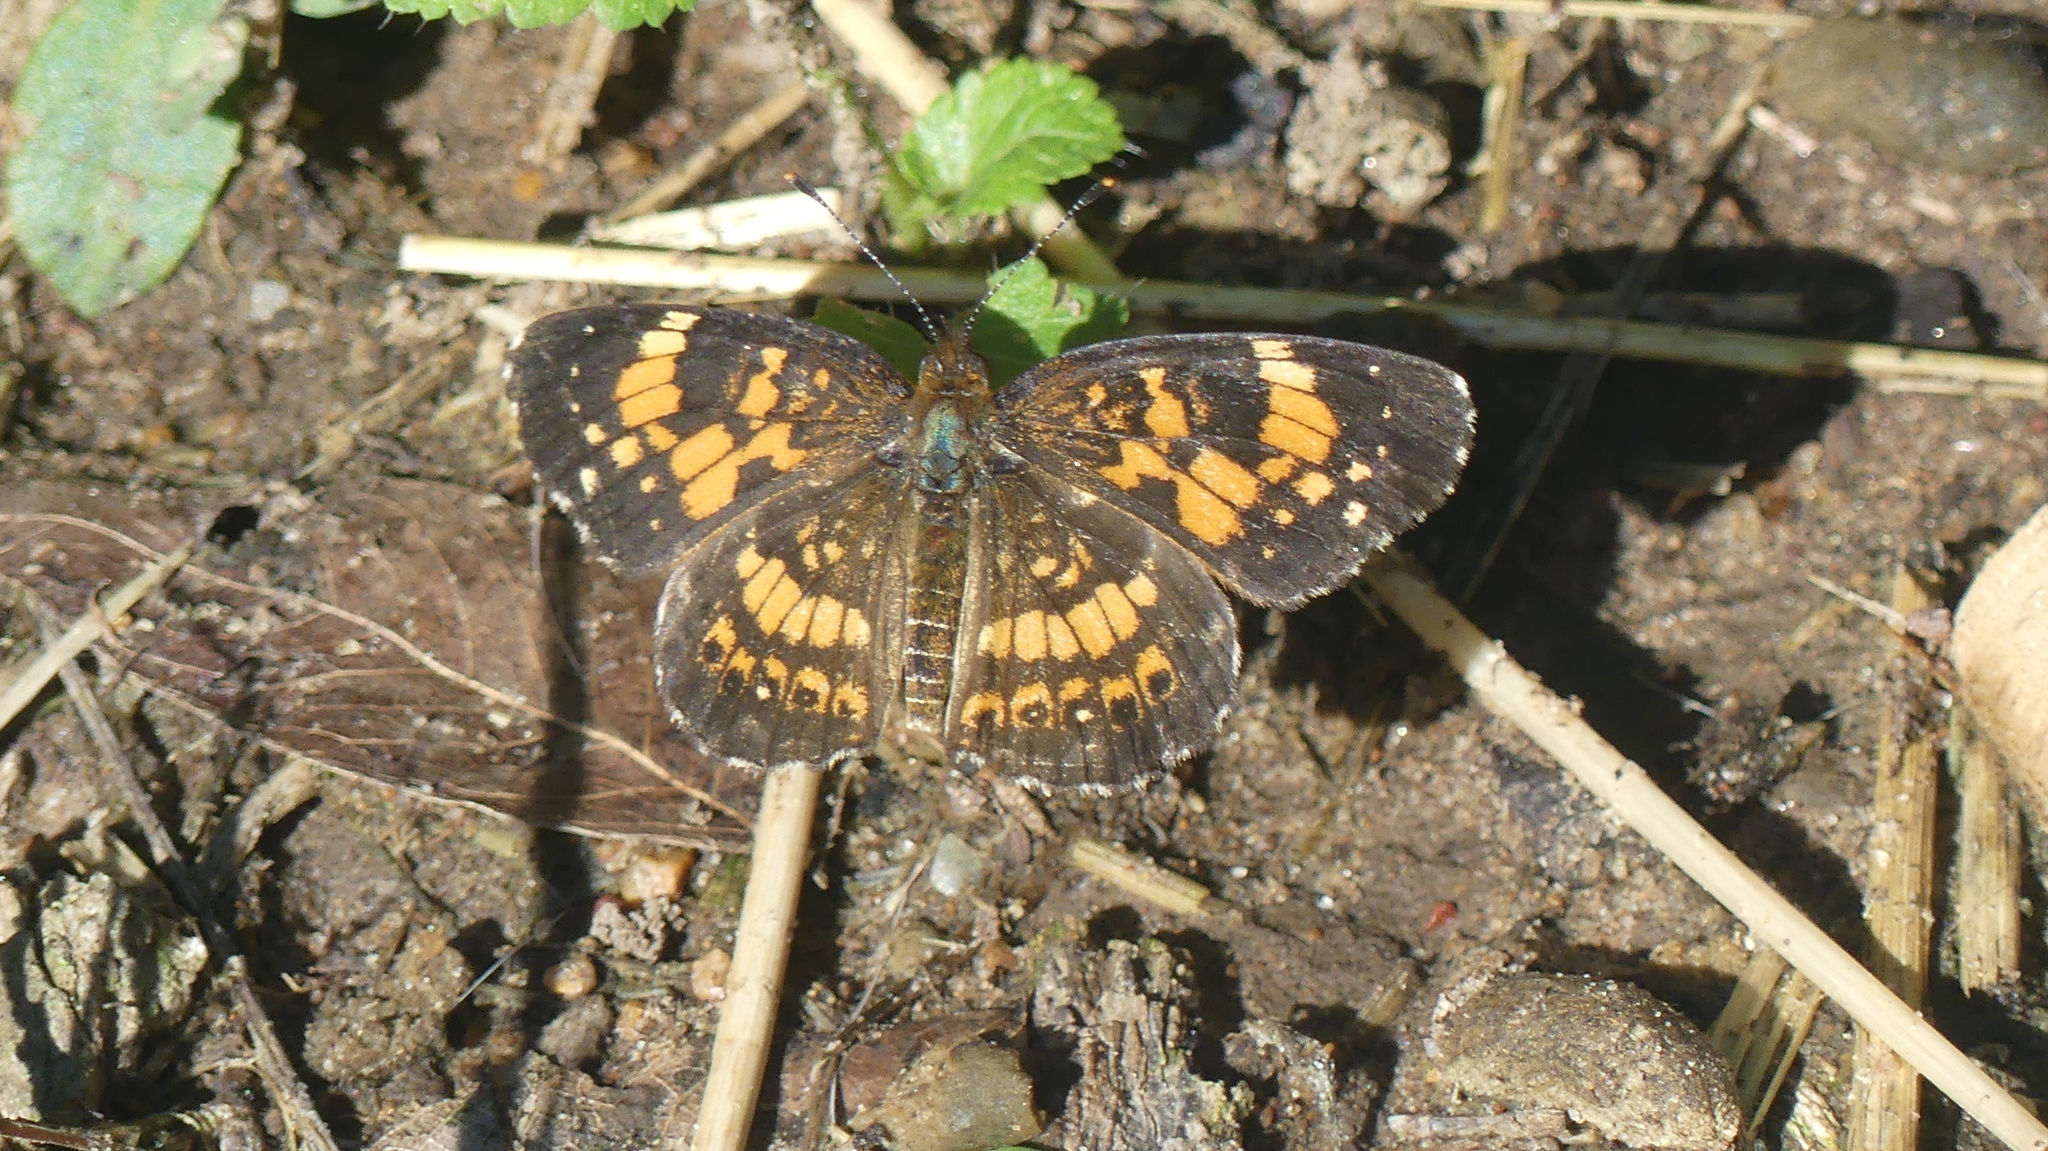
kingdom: Animalia
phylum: Arthropoda
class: Insecta
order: Lepidoptera
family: Nymphalidae
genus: Chlosyne
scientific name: Chlosyne nycteis
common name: Silvery checkerspot
